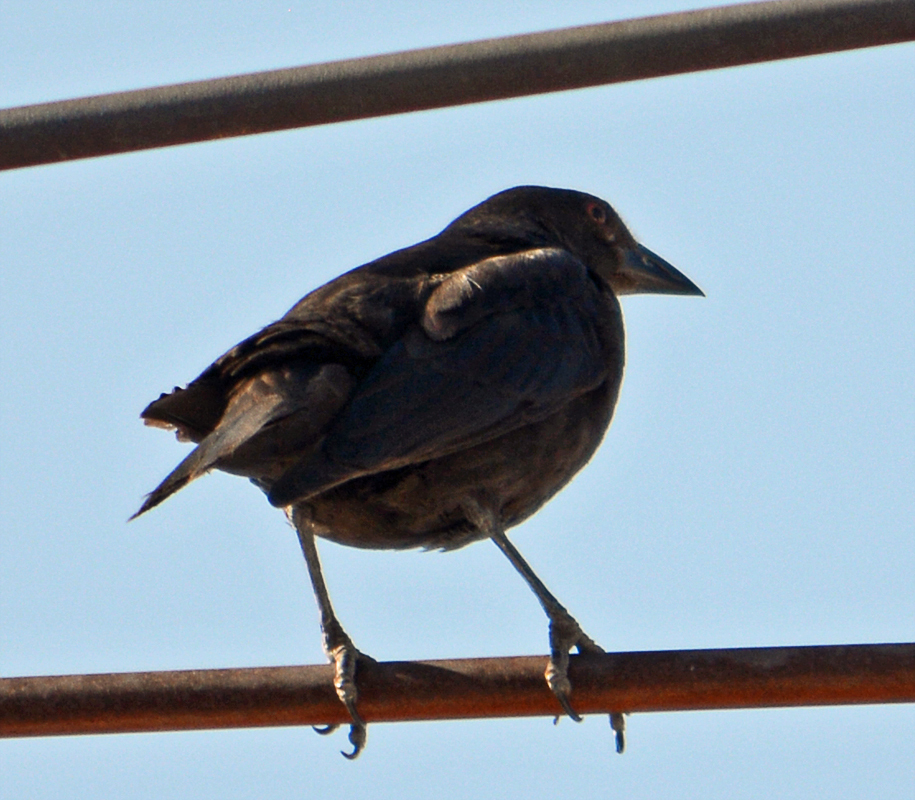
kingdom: Animalia
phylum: Chordata
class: Aves
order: Passeriformes
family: Icteridae
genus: Molothrus
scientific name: Molothrus aeneus
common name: Bronzed cowbird
